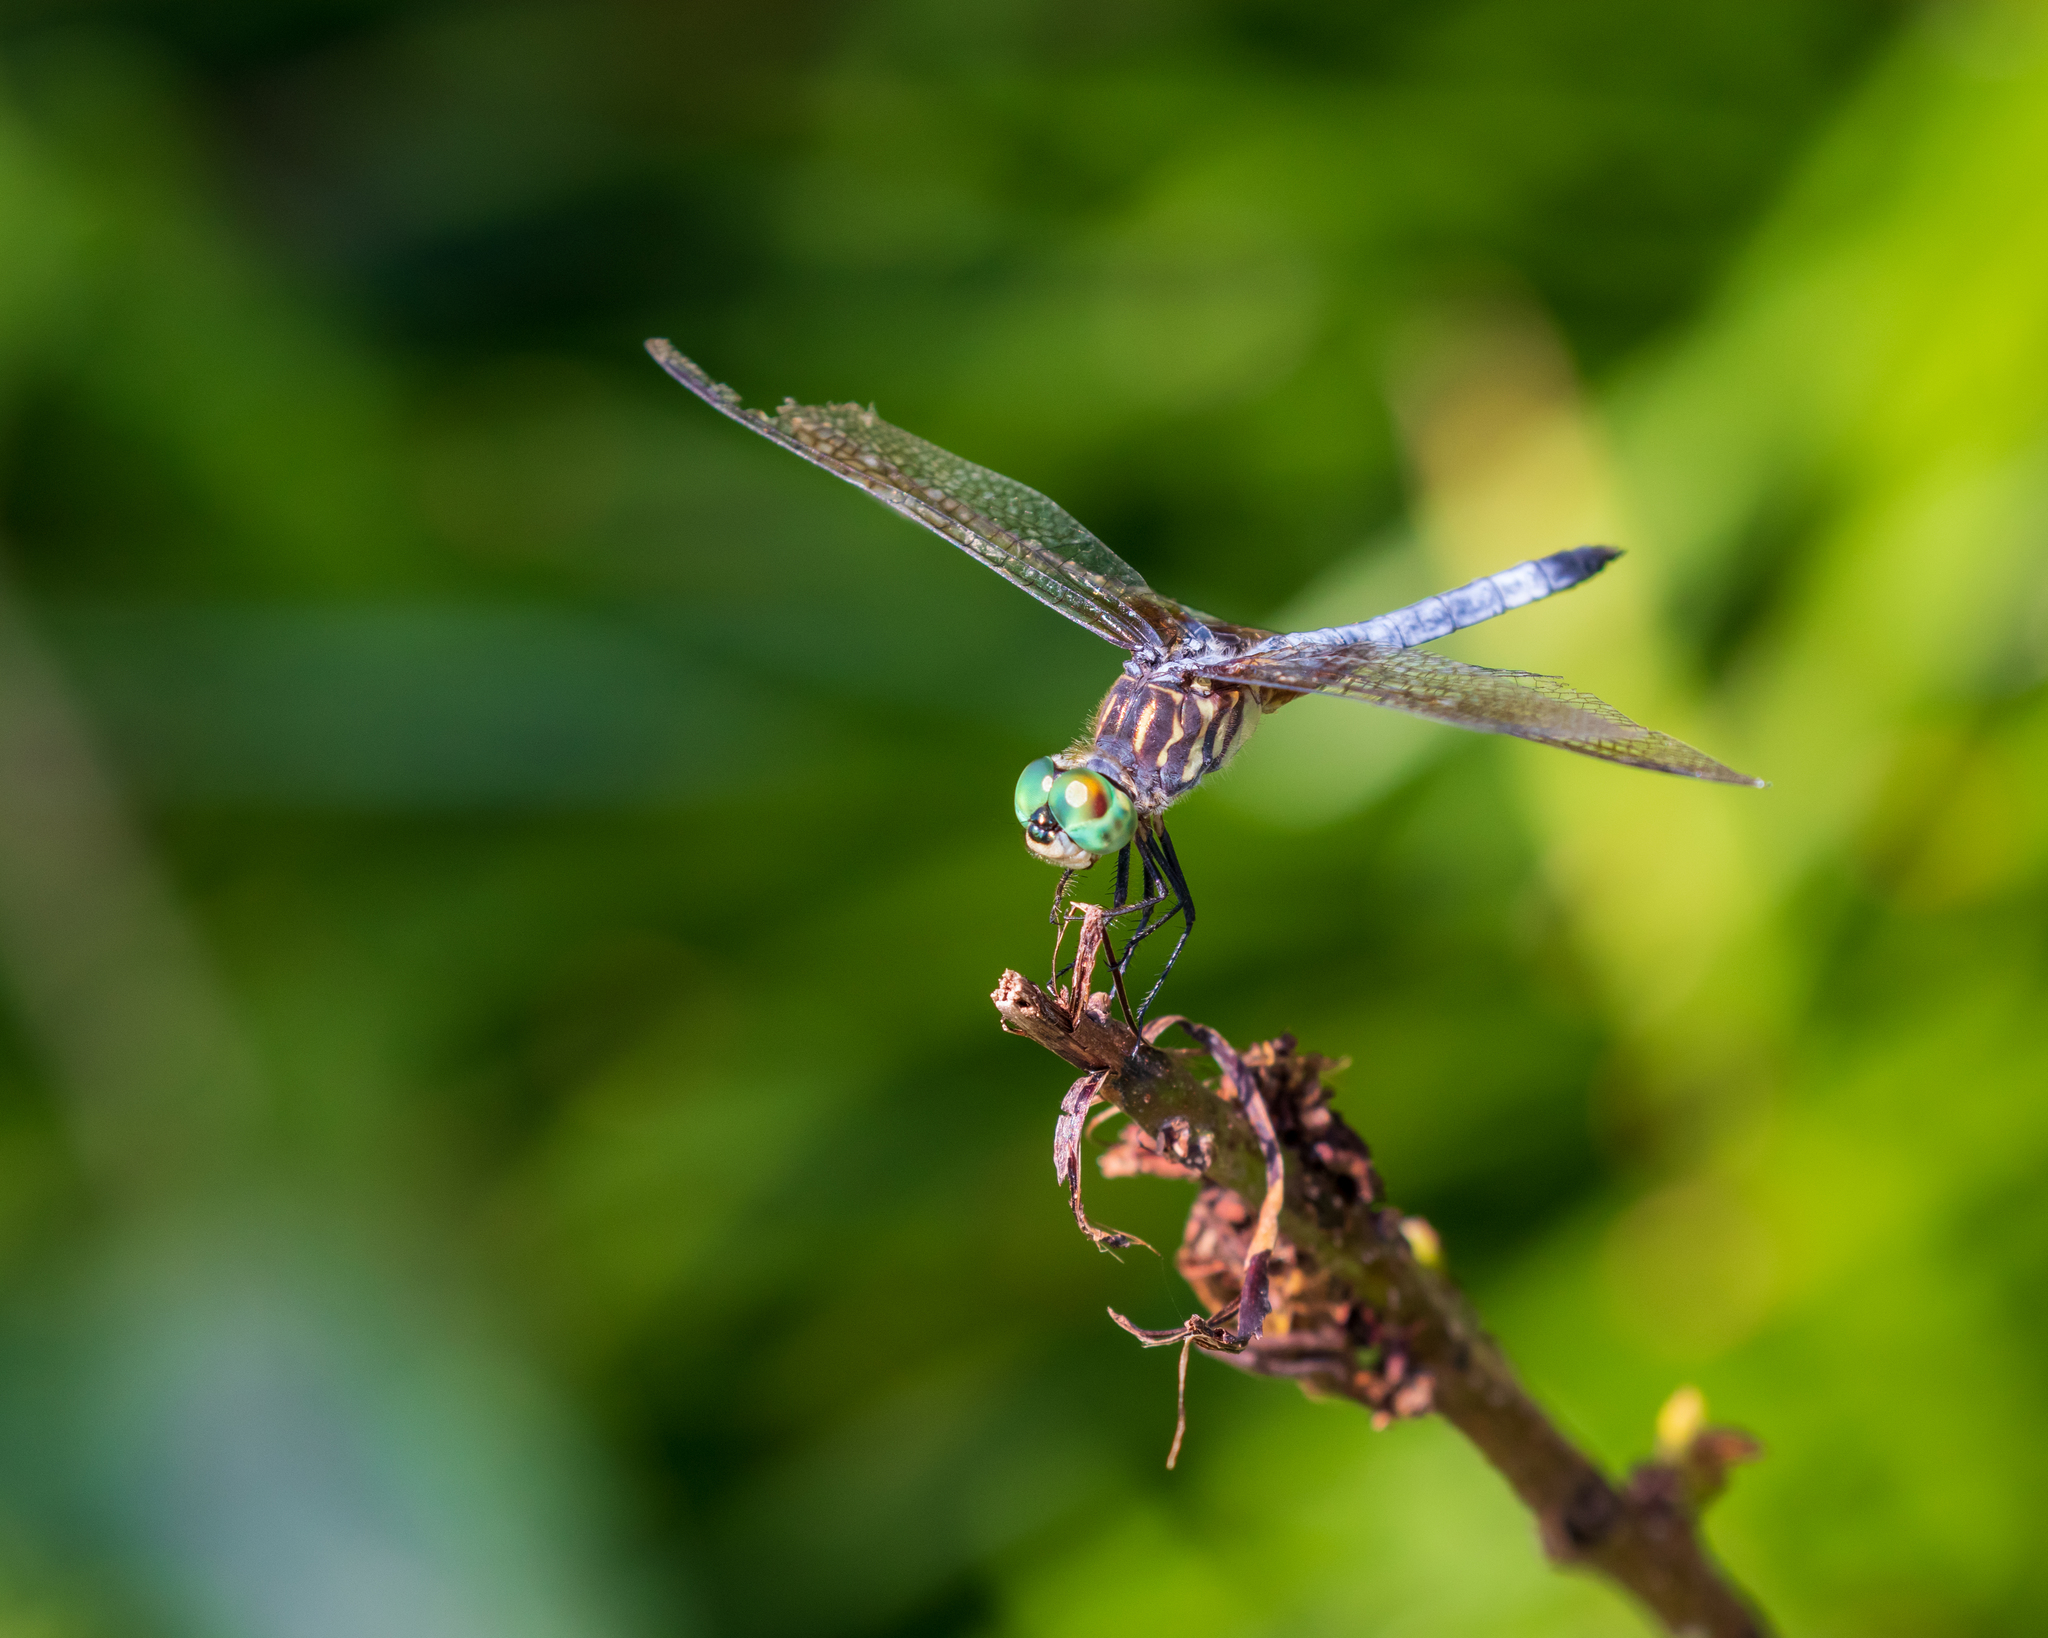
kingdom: Animalia
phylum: Arthropoda
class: Insecta
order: Odonata
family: Libellulidae
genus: Pachydiplax
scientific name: Pachydiplax longipennis
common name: Blue dasher
